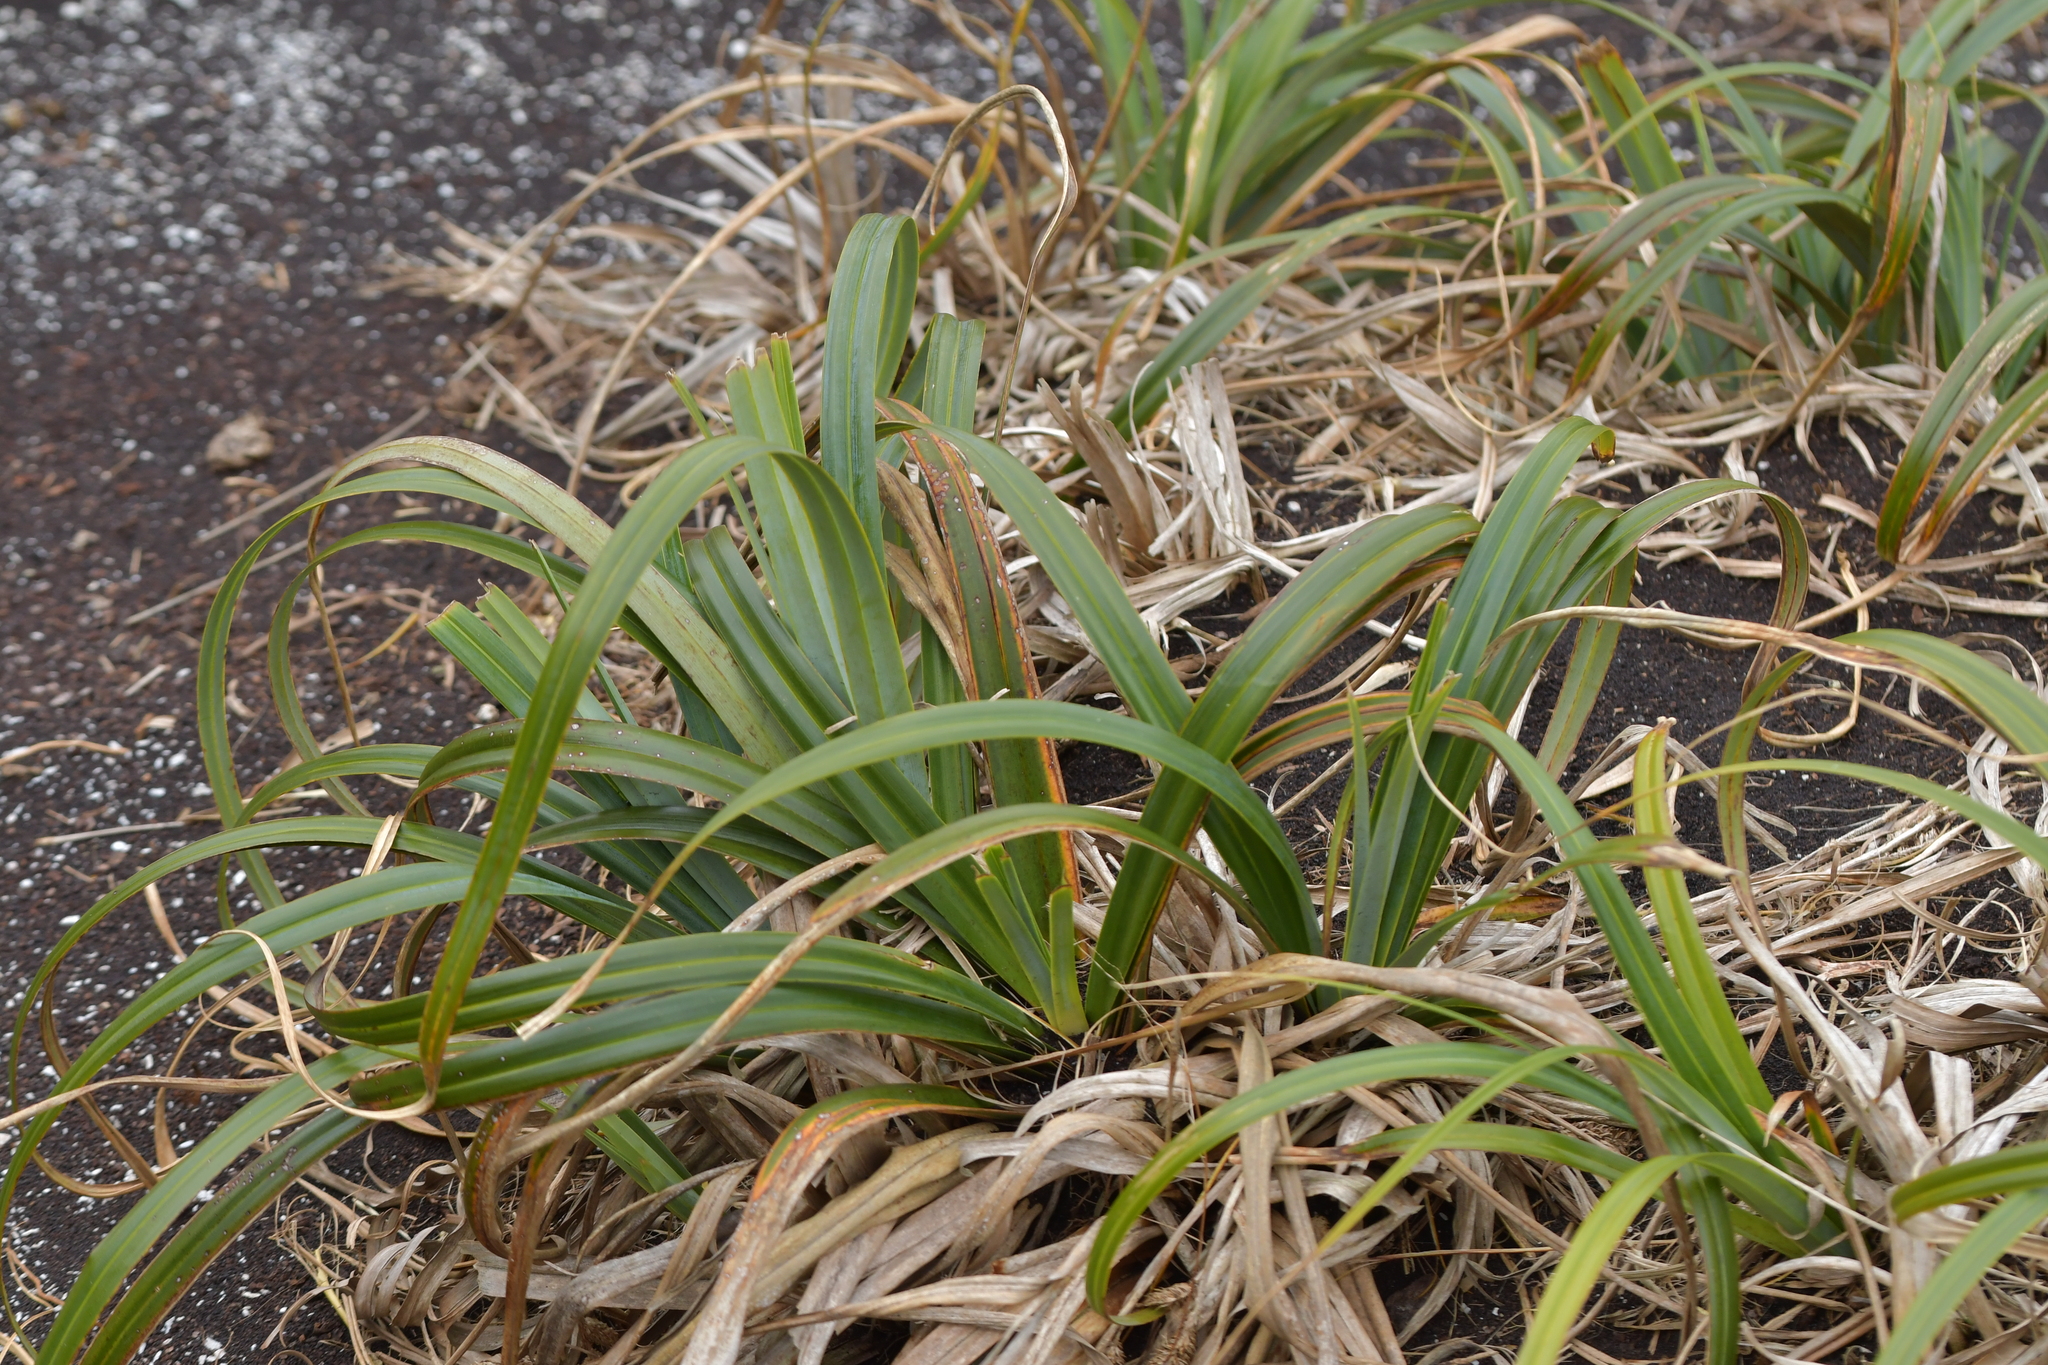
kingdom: Plantae
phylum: Tracheophyta
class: Liliopsida
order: Poales
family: Cyperaceae
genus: Carex
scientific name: Carex trifida
